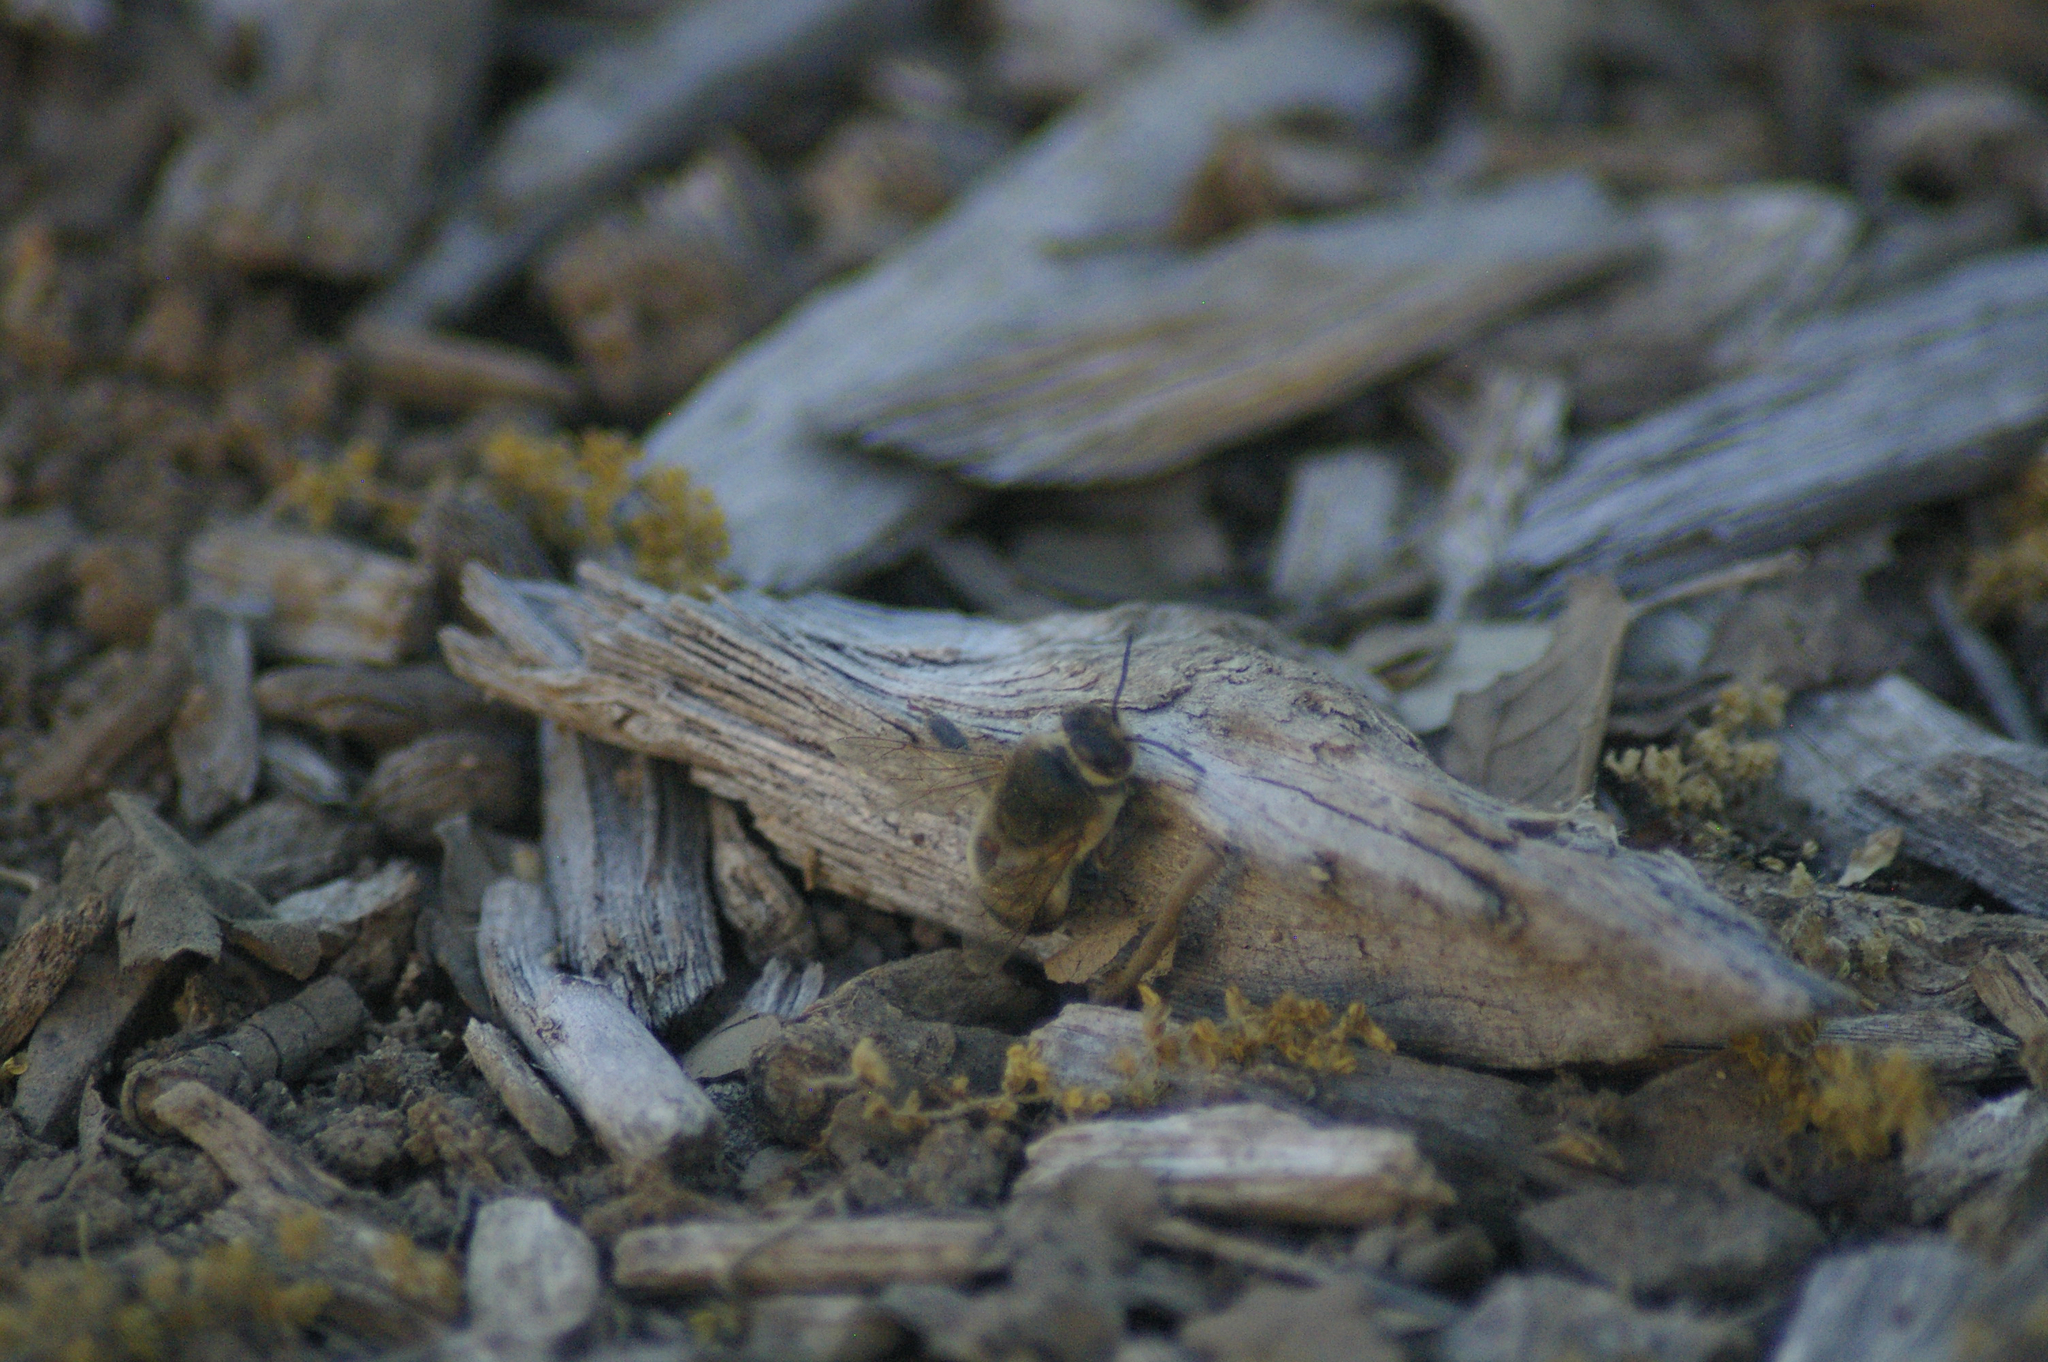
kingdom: Animalia
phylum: Arthropoda
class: Insecta
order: Hymenoptera
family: Apidae
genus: Apis
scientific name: Apis mellifera
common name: Honey bee
